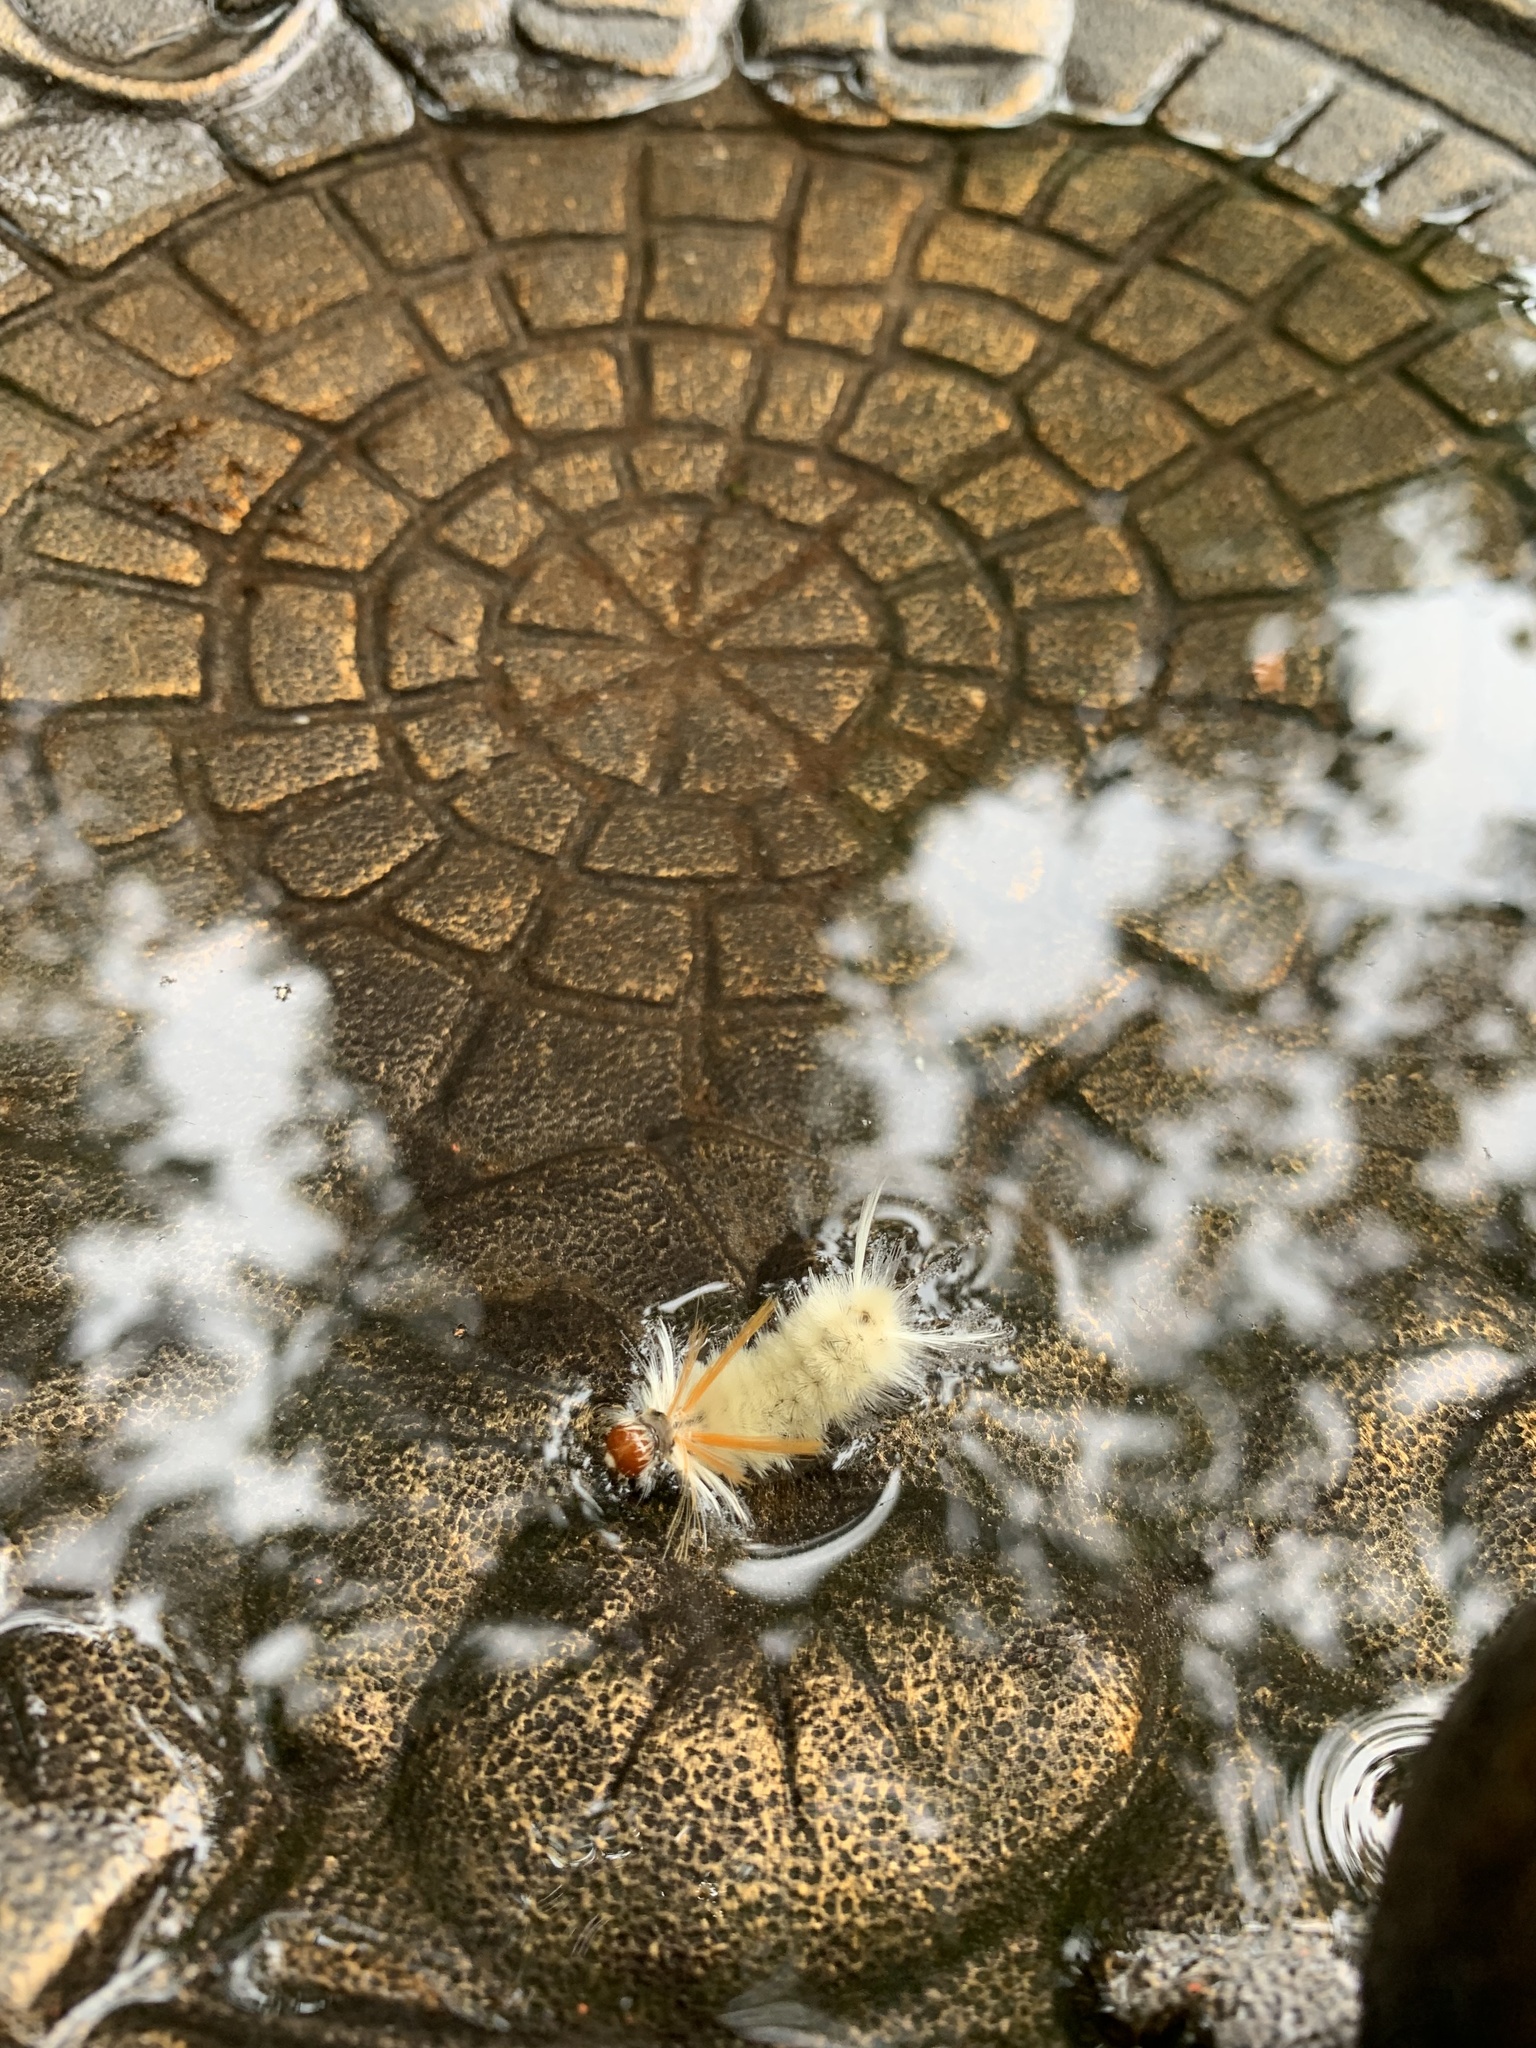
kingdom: Animalia
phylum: Arthropoda
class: Insecta
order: Lepidoptera
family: Erebidae
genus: Halysidota
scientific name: Halysidota harrisii
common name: Sycamore tussock moth
